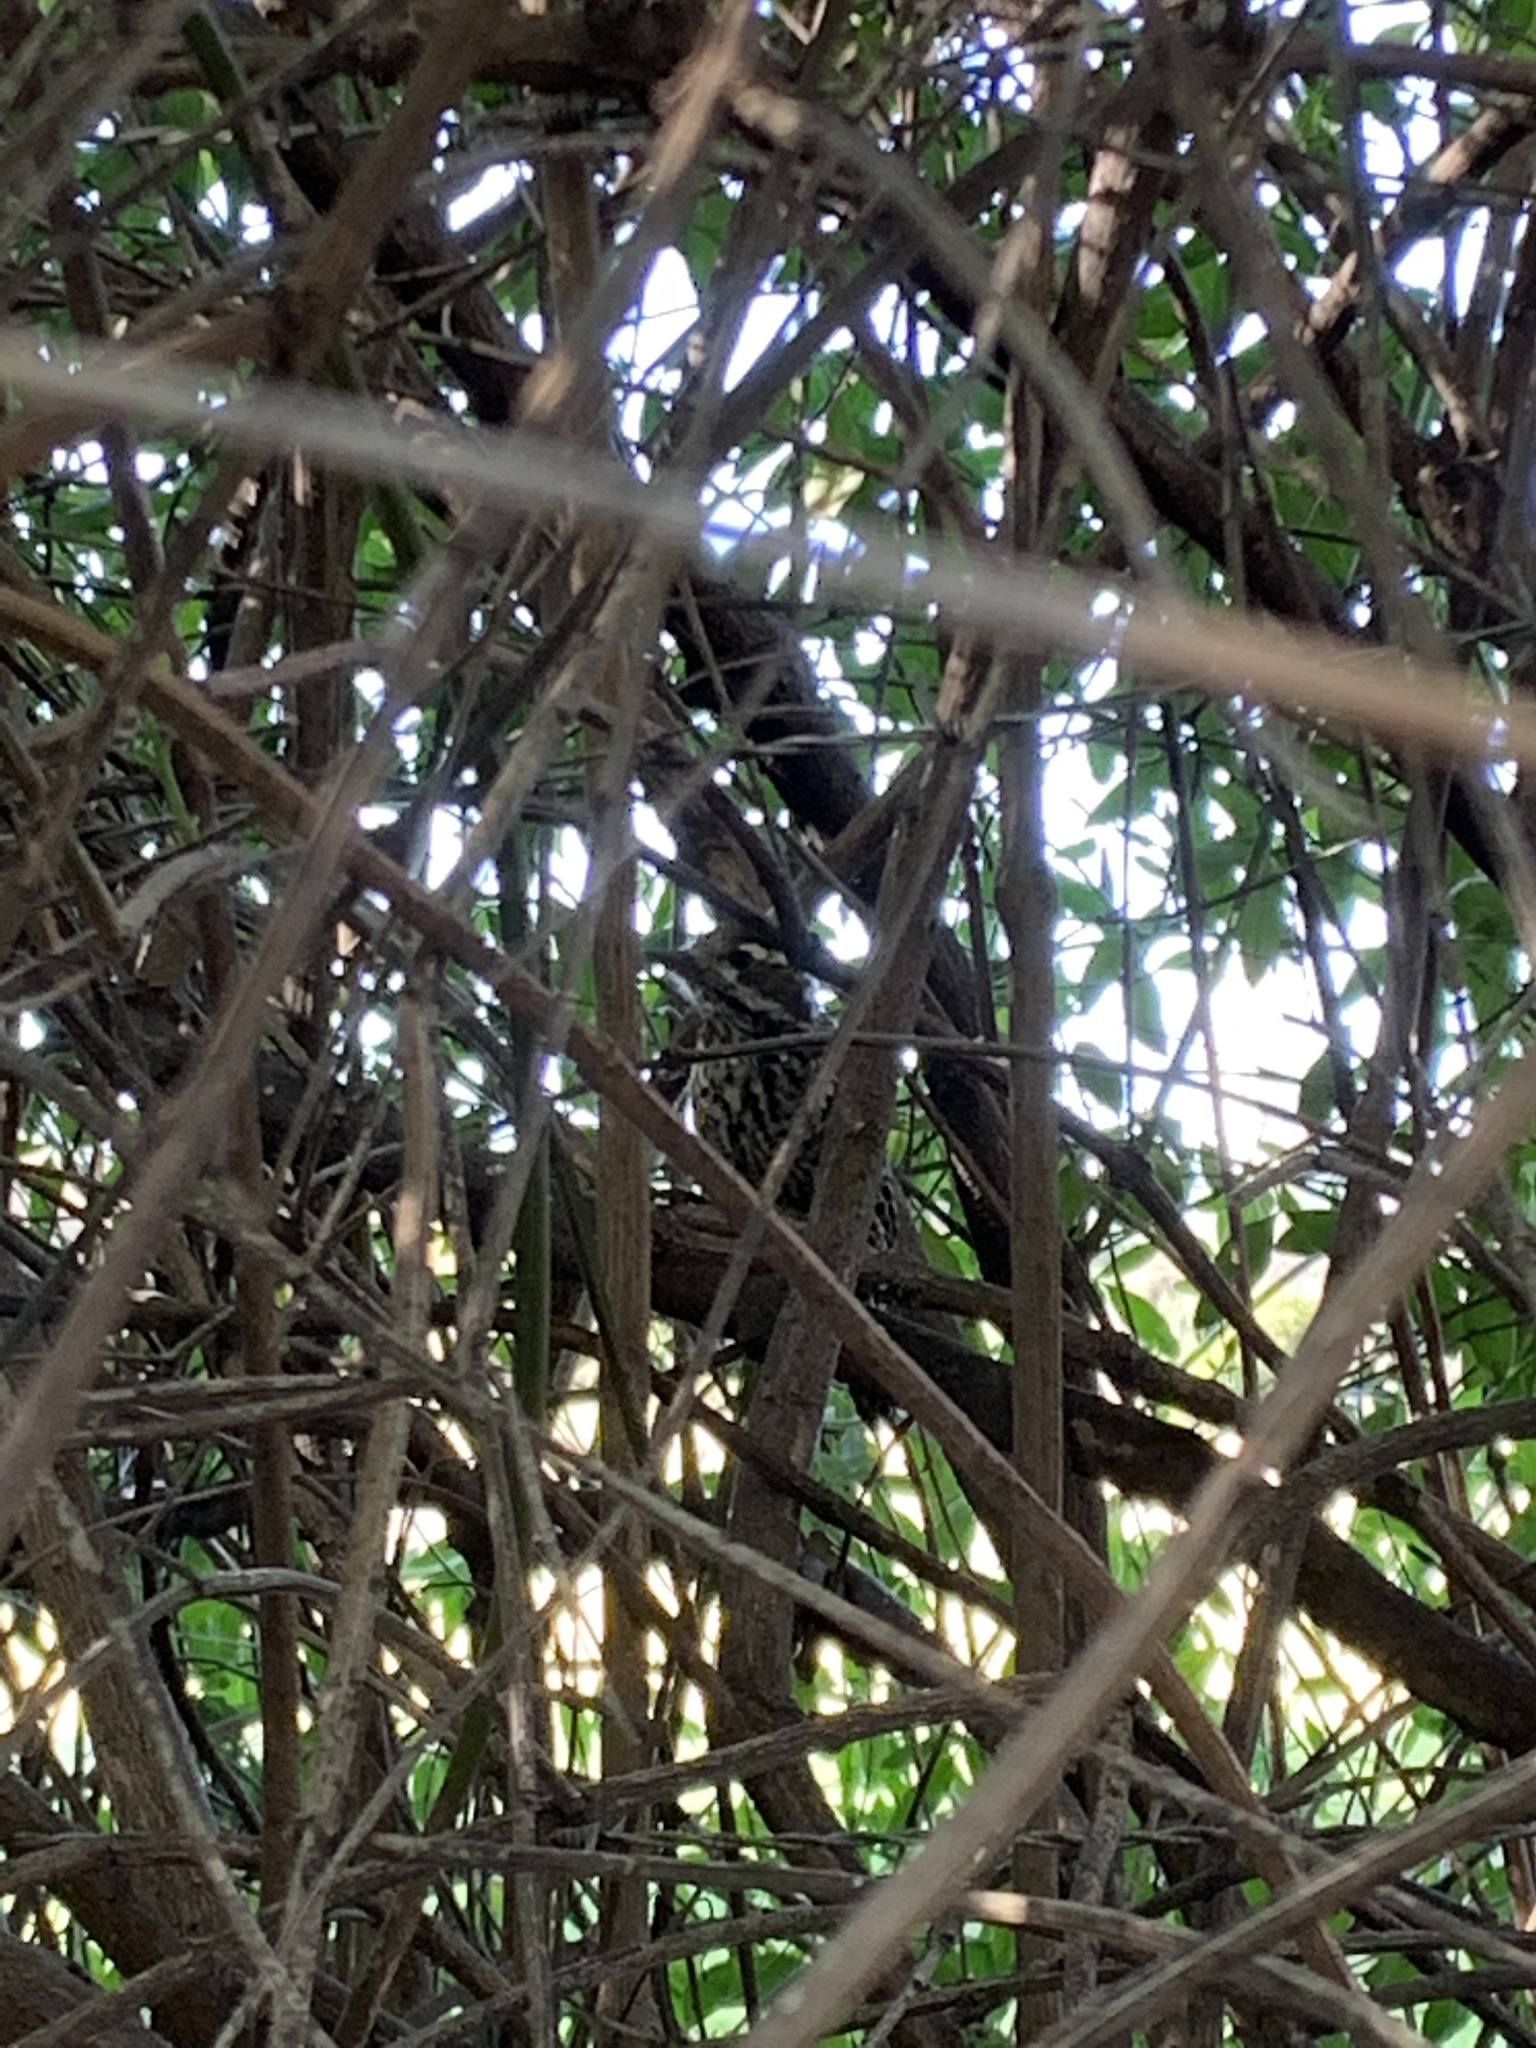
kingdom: Animalia
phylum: Chordata
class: Aves
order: Piciformes
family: Picidae
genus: Veniliornis
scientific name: Veniliornis mixtus
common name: Checkered woodpecker
